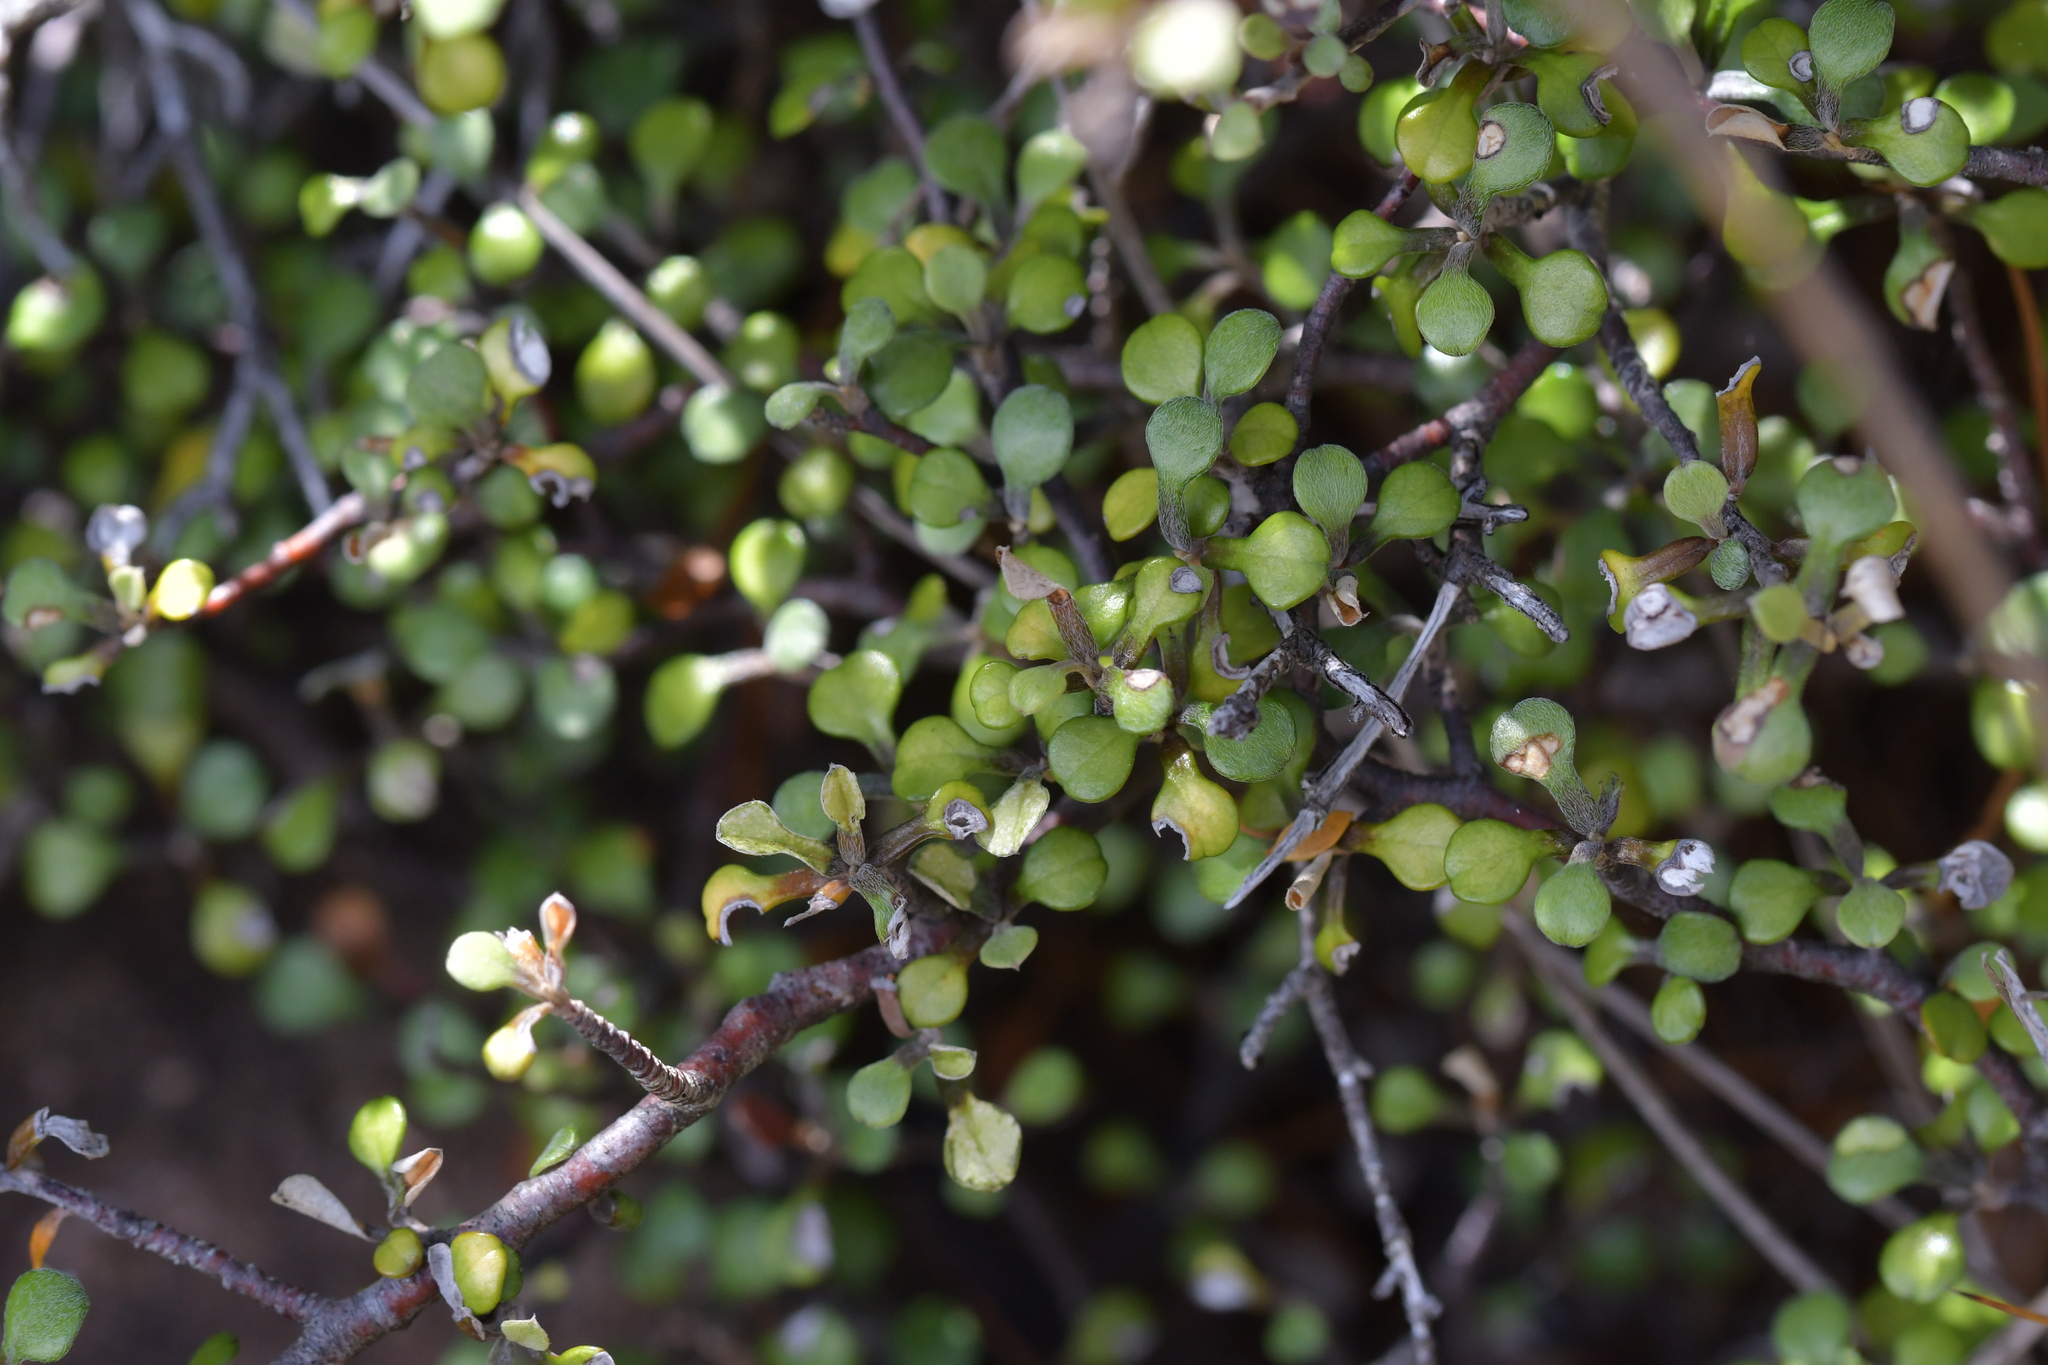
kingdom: Plantae
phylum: Tracheophyta
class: Magnoliopsida
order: Asterales
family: Argophyllaceae
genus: Corokia
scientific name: Corokia cotoneaster
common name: Wire nettingbush
